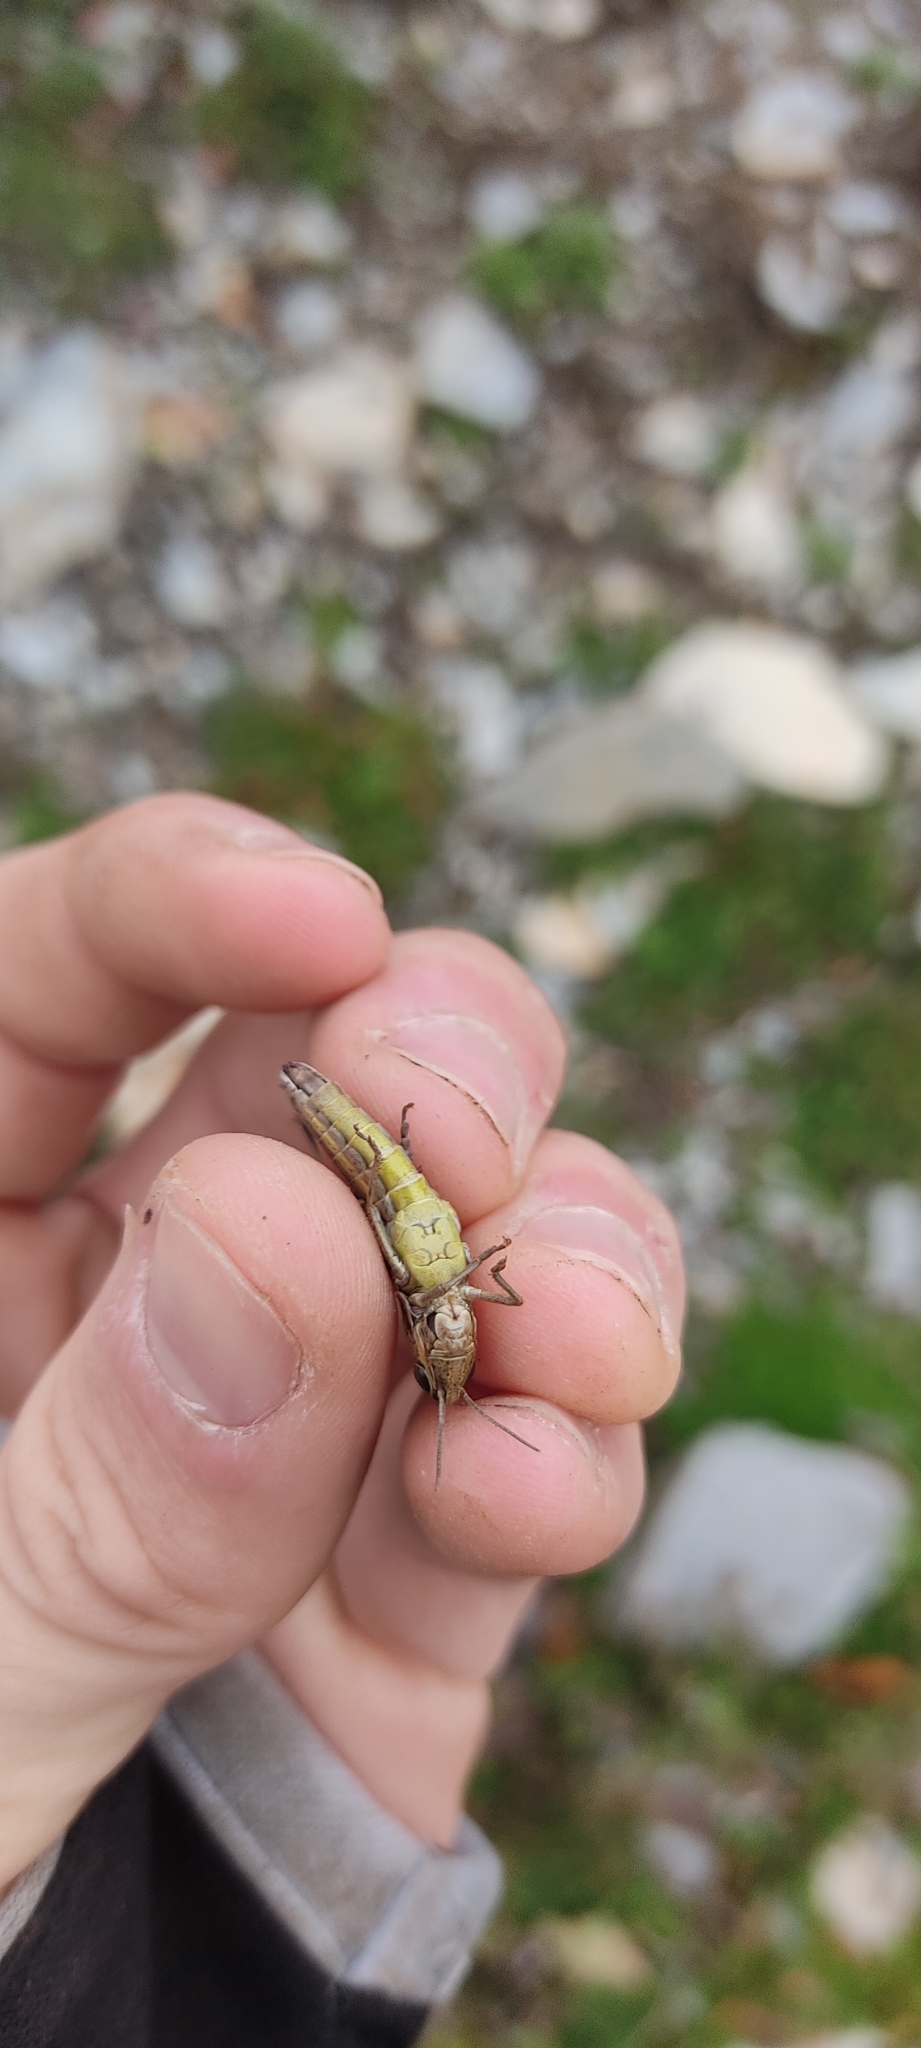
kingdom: Animalia
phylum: Arthropoda
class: Insecta
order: Orthoptera
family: Acrididae
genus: Euchorthippus
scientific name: Euchorthippus declivus
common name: Common straw grasshopper
